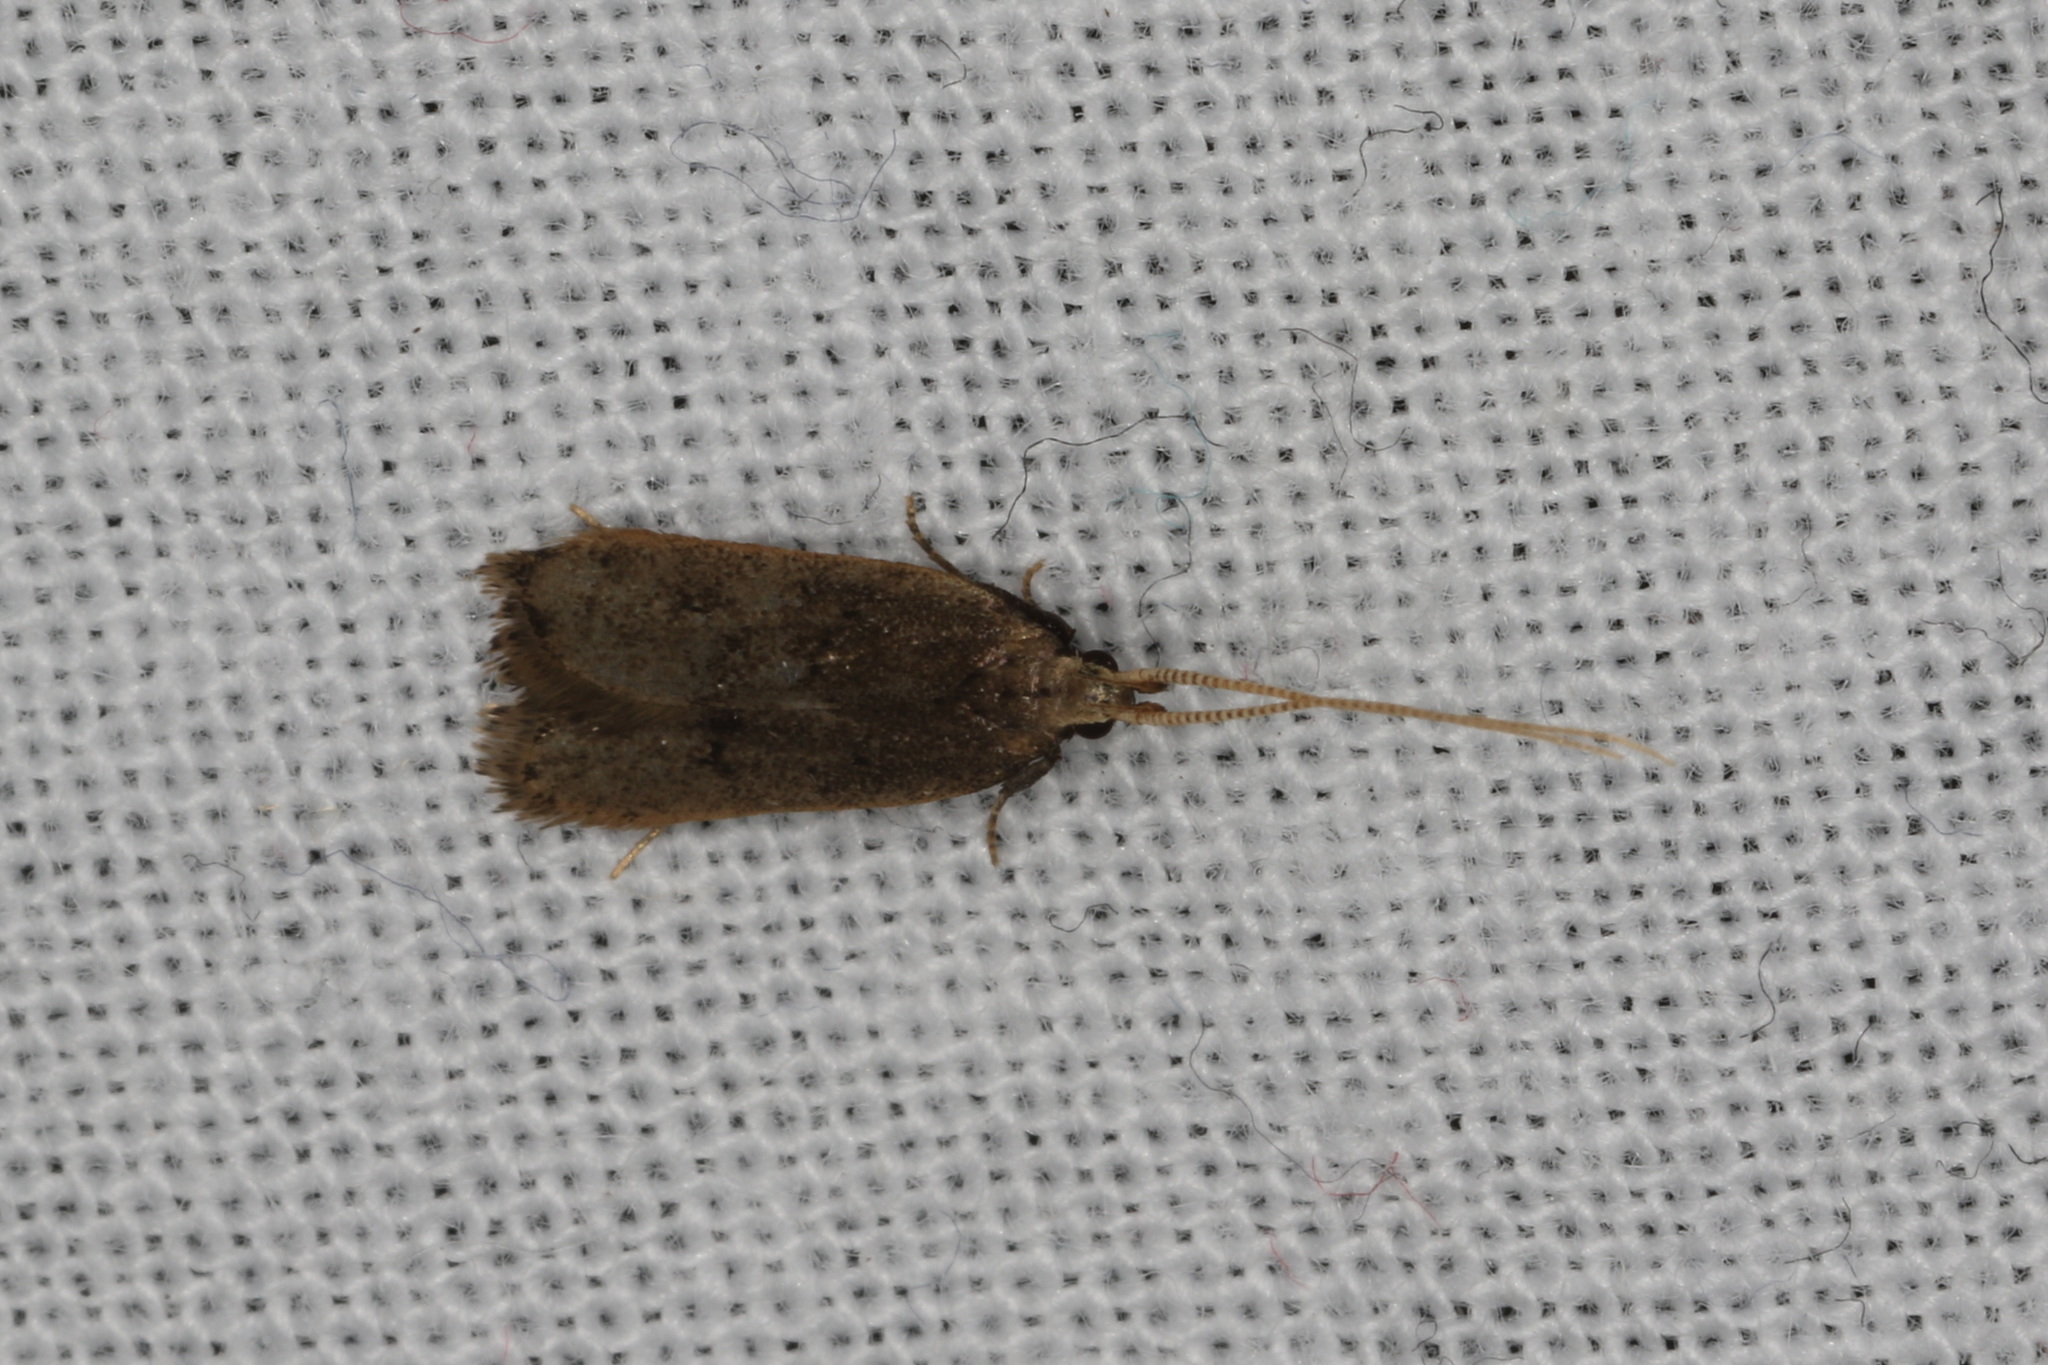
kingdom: Animalia
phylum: Arthropoda
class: Insecta
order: Lepidoptera
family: Lecithoceridae
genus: Lecithocera
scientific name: Lecithocera terrigena
